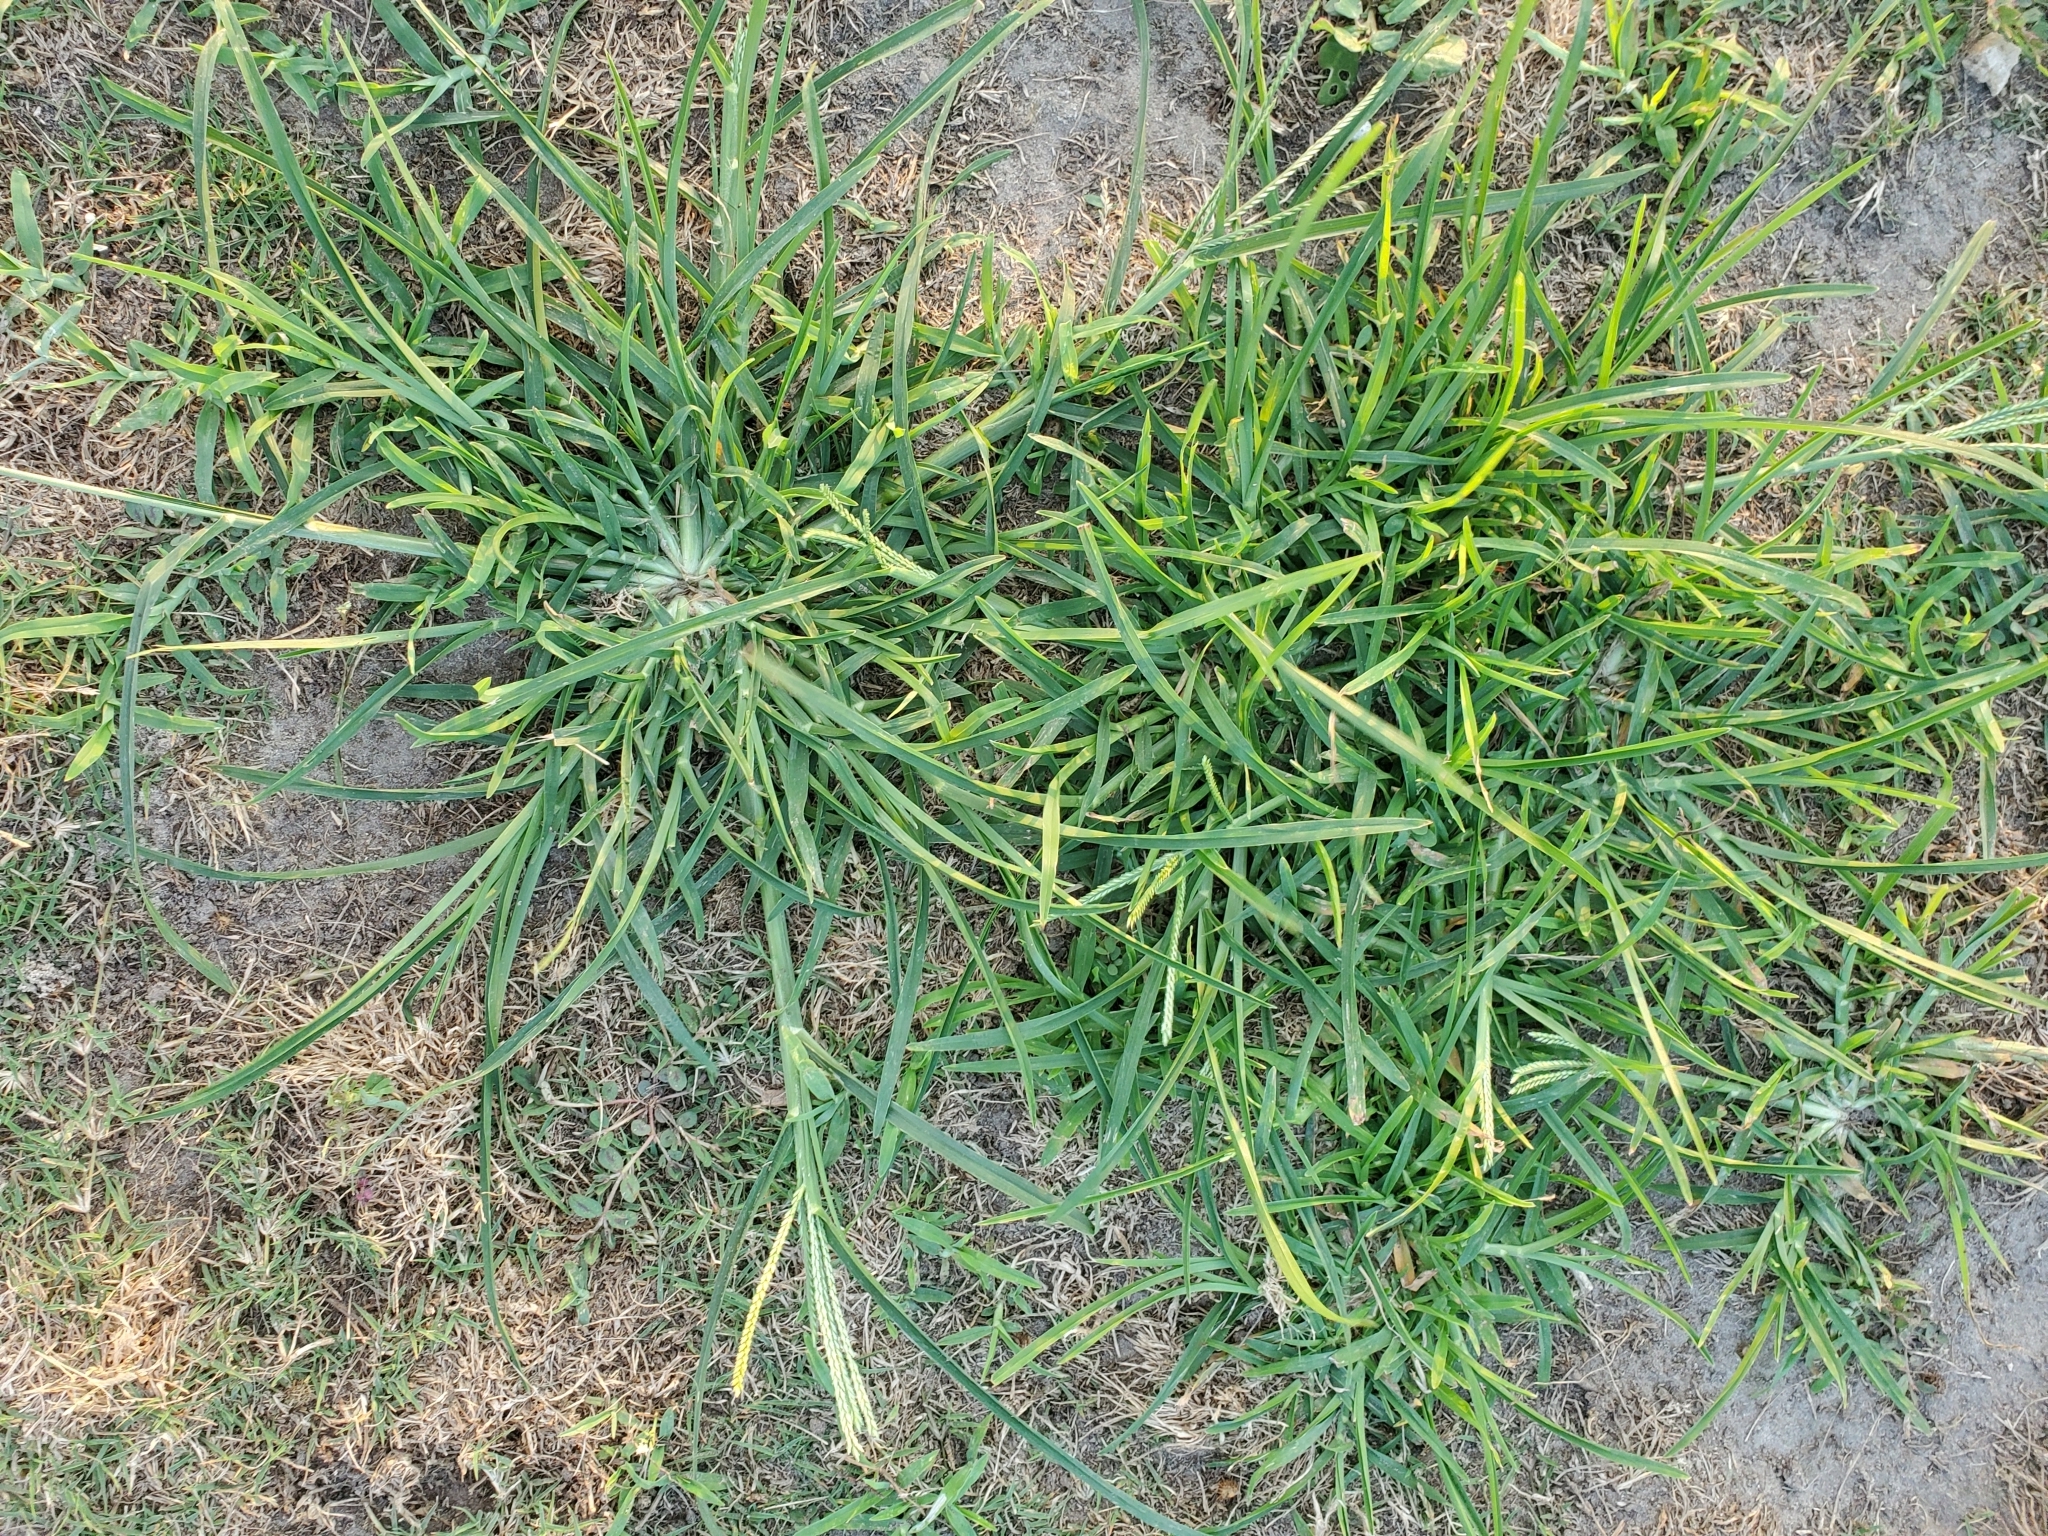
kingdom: Plantae
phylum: Tracheophyta
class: Liliopsida
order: Poales
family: Poaceae
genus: Eleusine
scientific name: Eleusine indica
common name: Yard-grass
